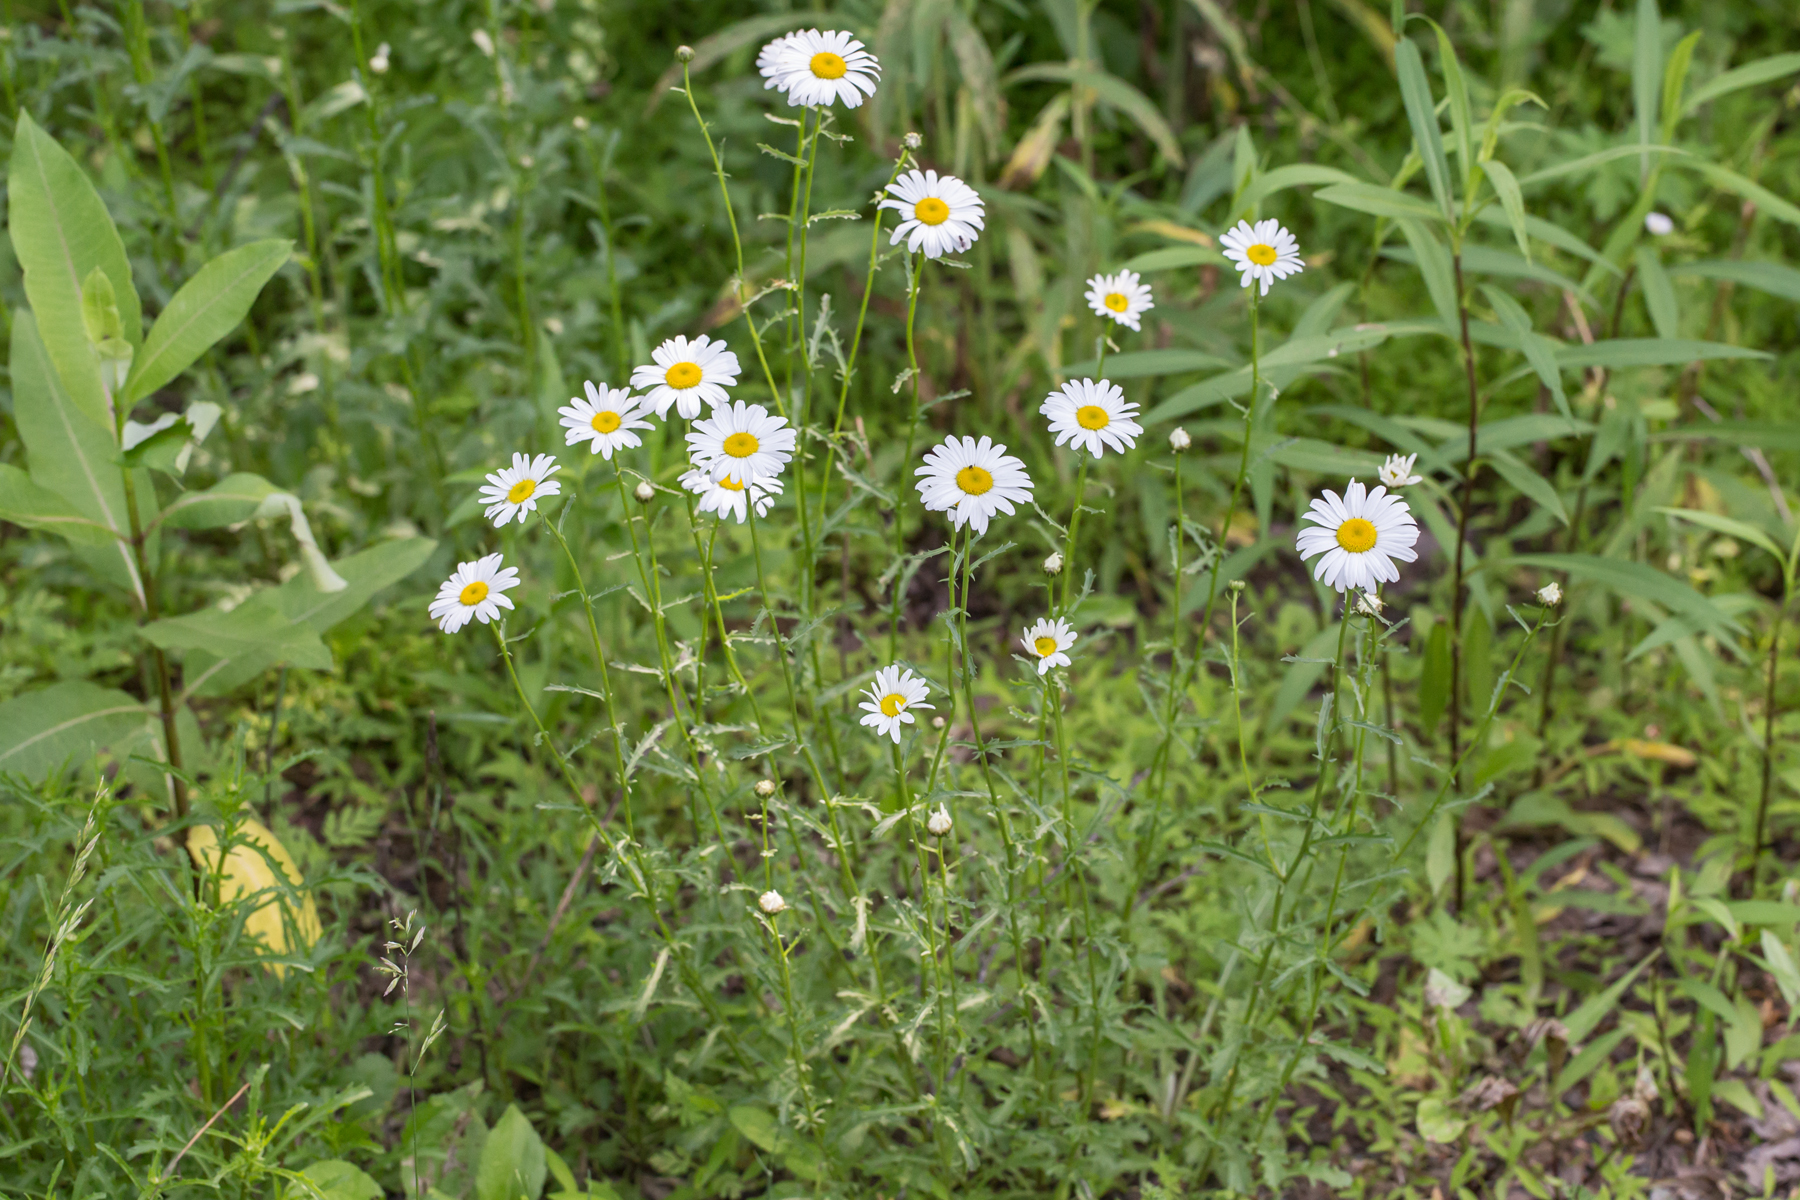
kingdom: Plantae
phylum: Tracheophyta
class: Magnoliopsida
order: Asterales
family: Asteraceae
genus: Leucanthemum
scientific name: Leucanthemum vulgare
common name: Oxeye daisy
